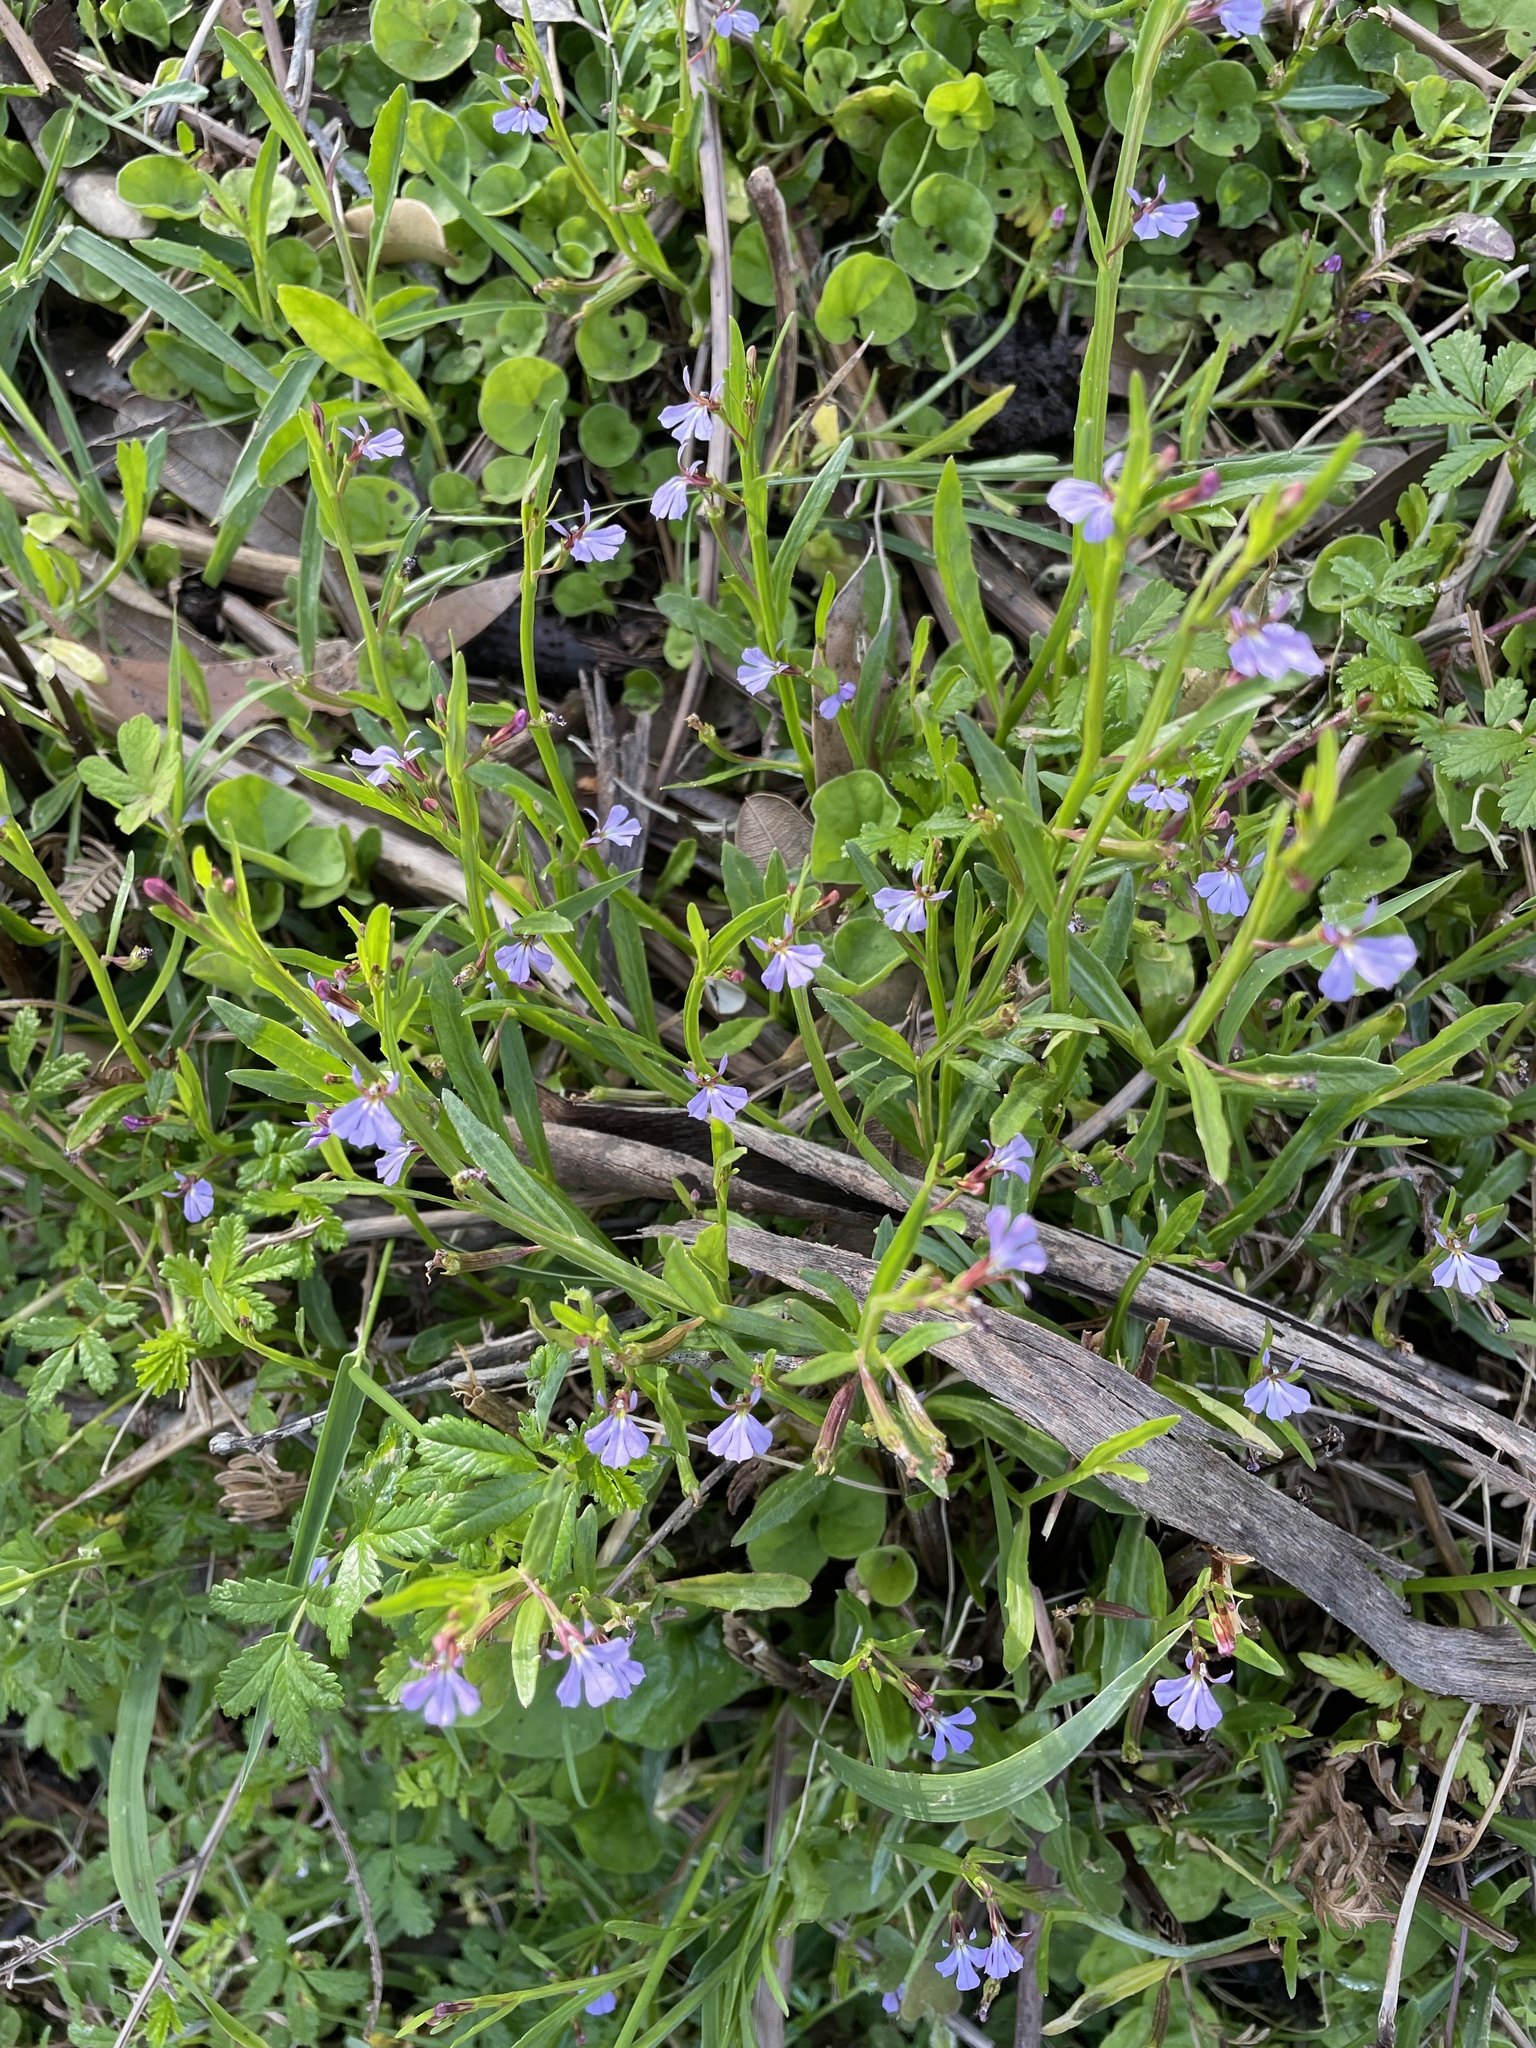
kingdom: Plantae
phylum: Tracheophyta
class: Magnoliopsida
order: Asterales
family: Campanulaceae
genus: Lobelia
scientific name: Lobelia anceps
